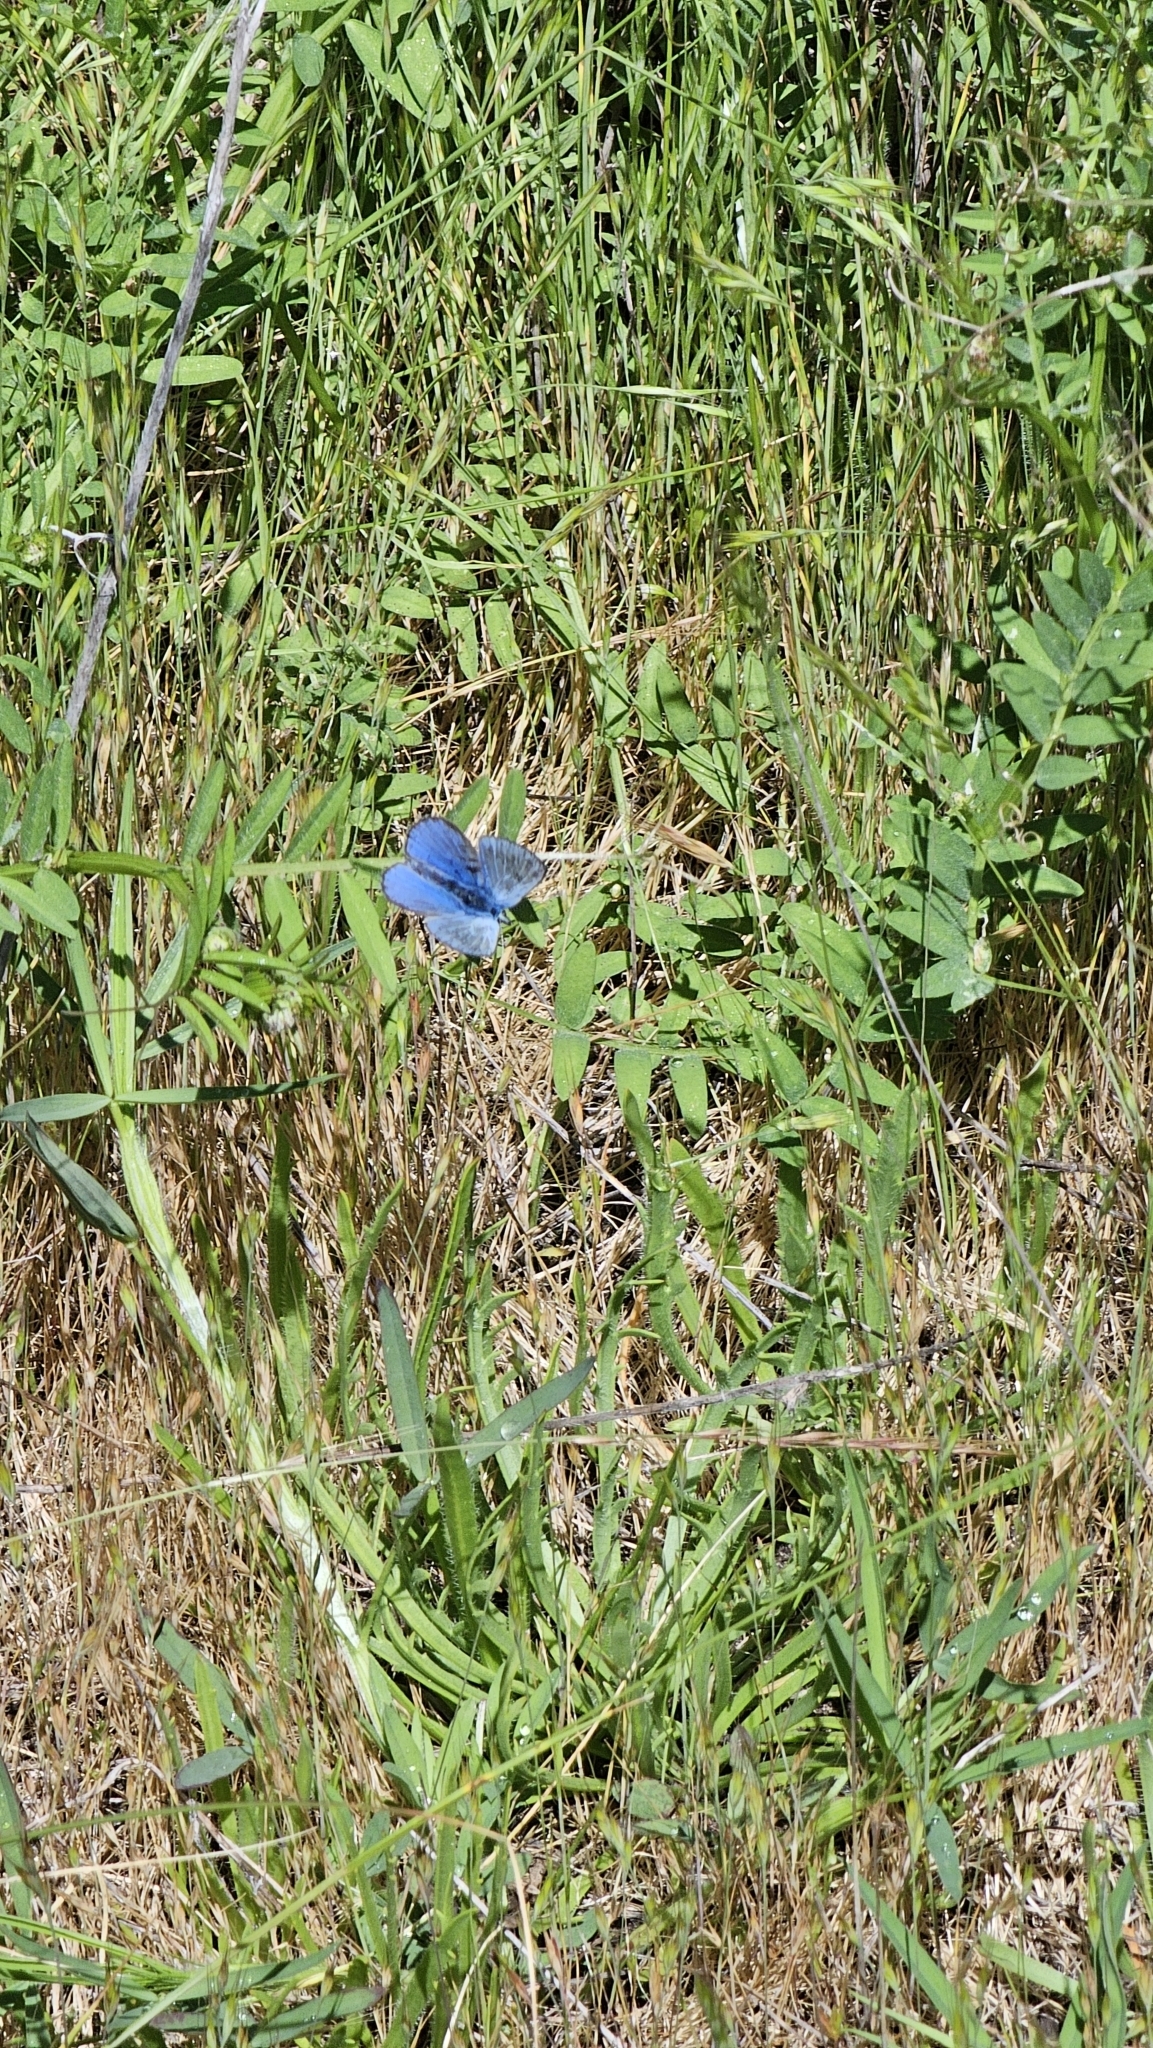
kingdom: Animalia
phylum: Arthropoda
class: Insecta
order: Lepidoptera
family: Lycaenidae
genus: Glaucopsyche
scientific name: Glaucopsyche lygdamus
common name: Silvery blue
